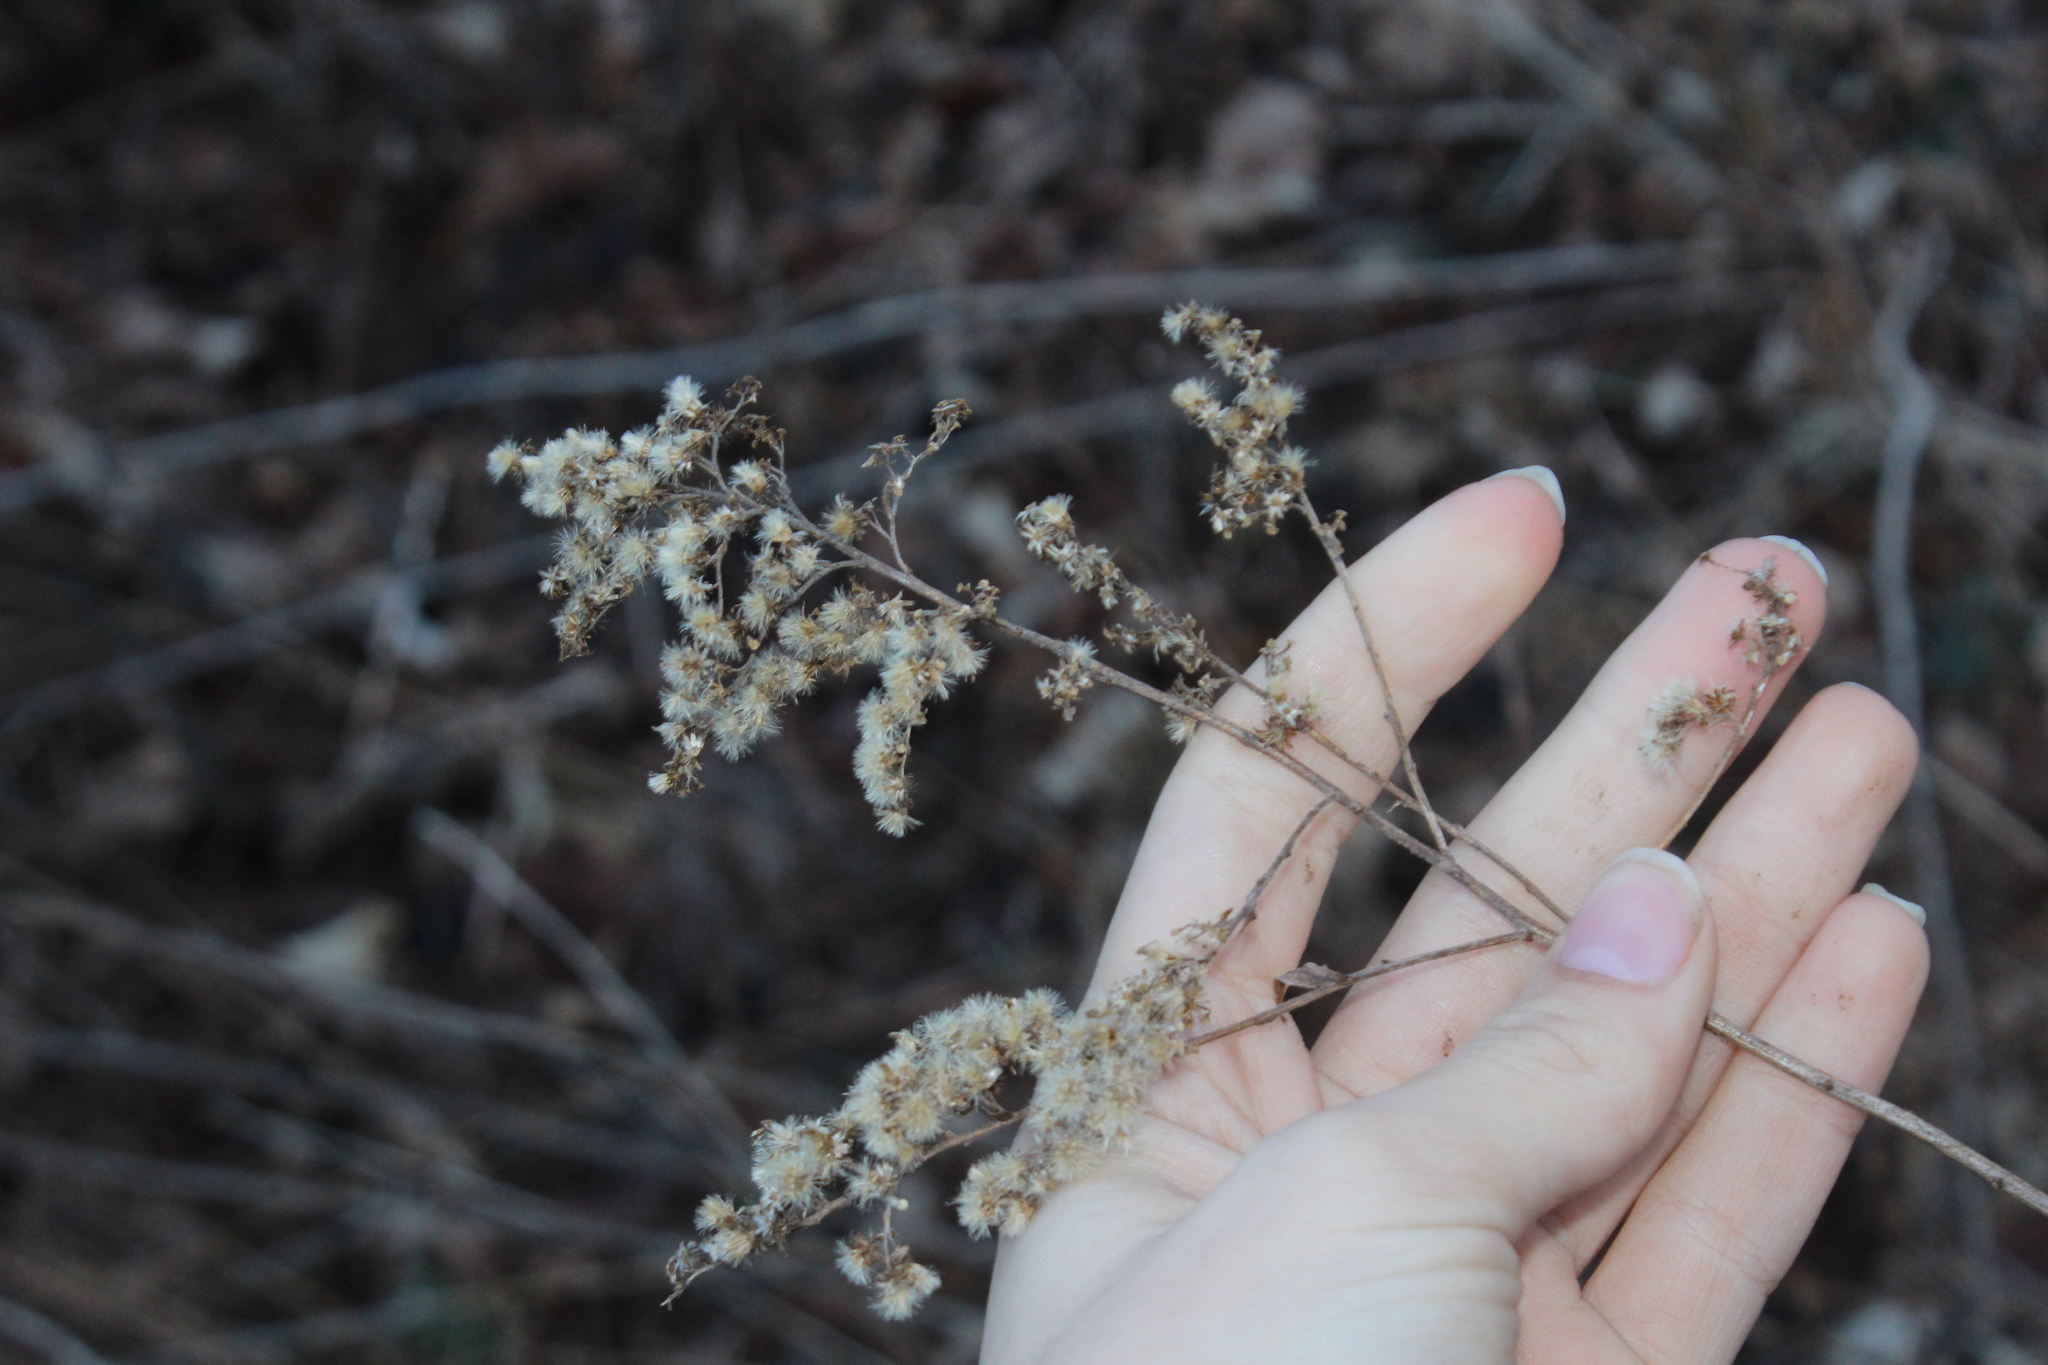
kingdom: Plantae
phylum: Tracheophyta
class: Magnoliopsida
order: Asterales
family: Asteraceae
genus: Solidago
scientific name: Solidago
